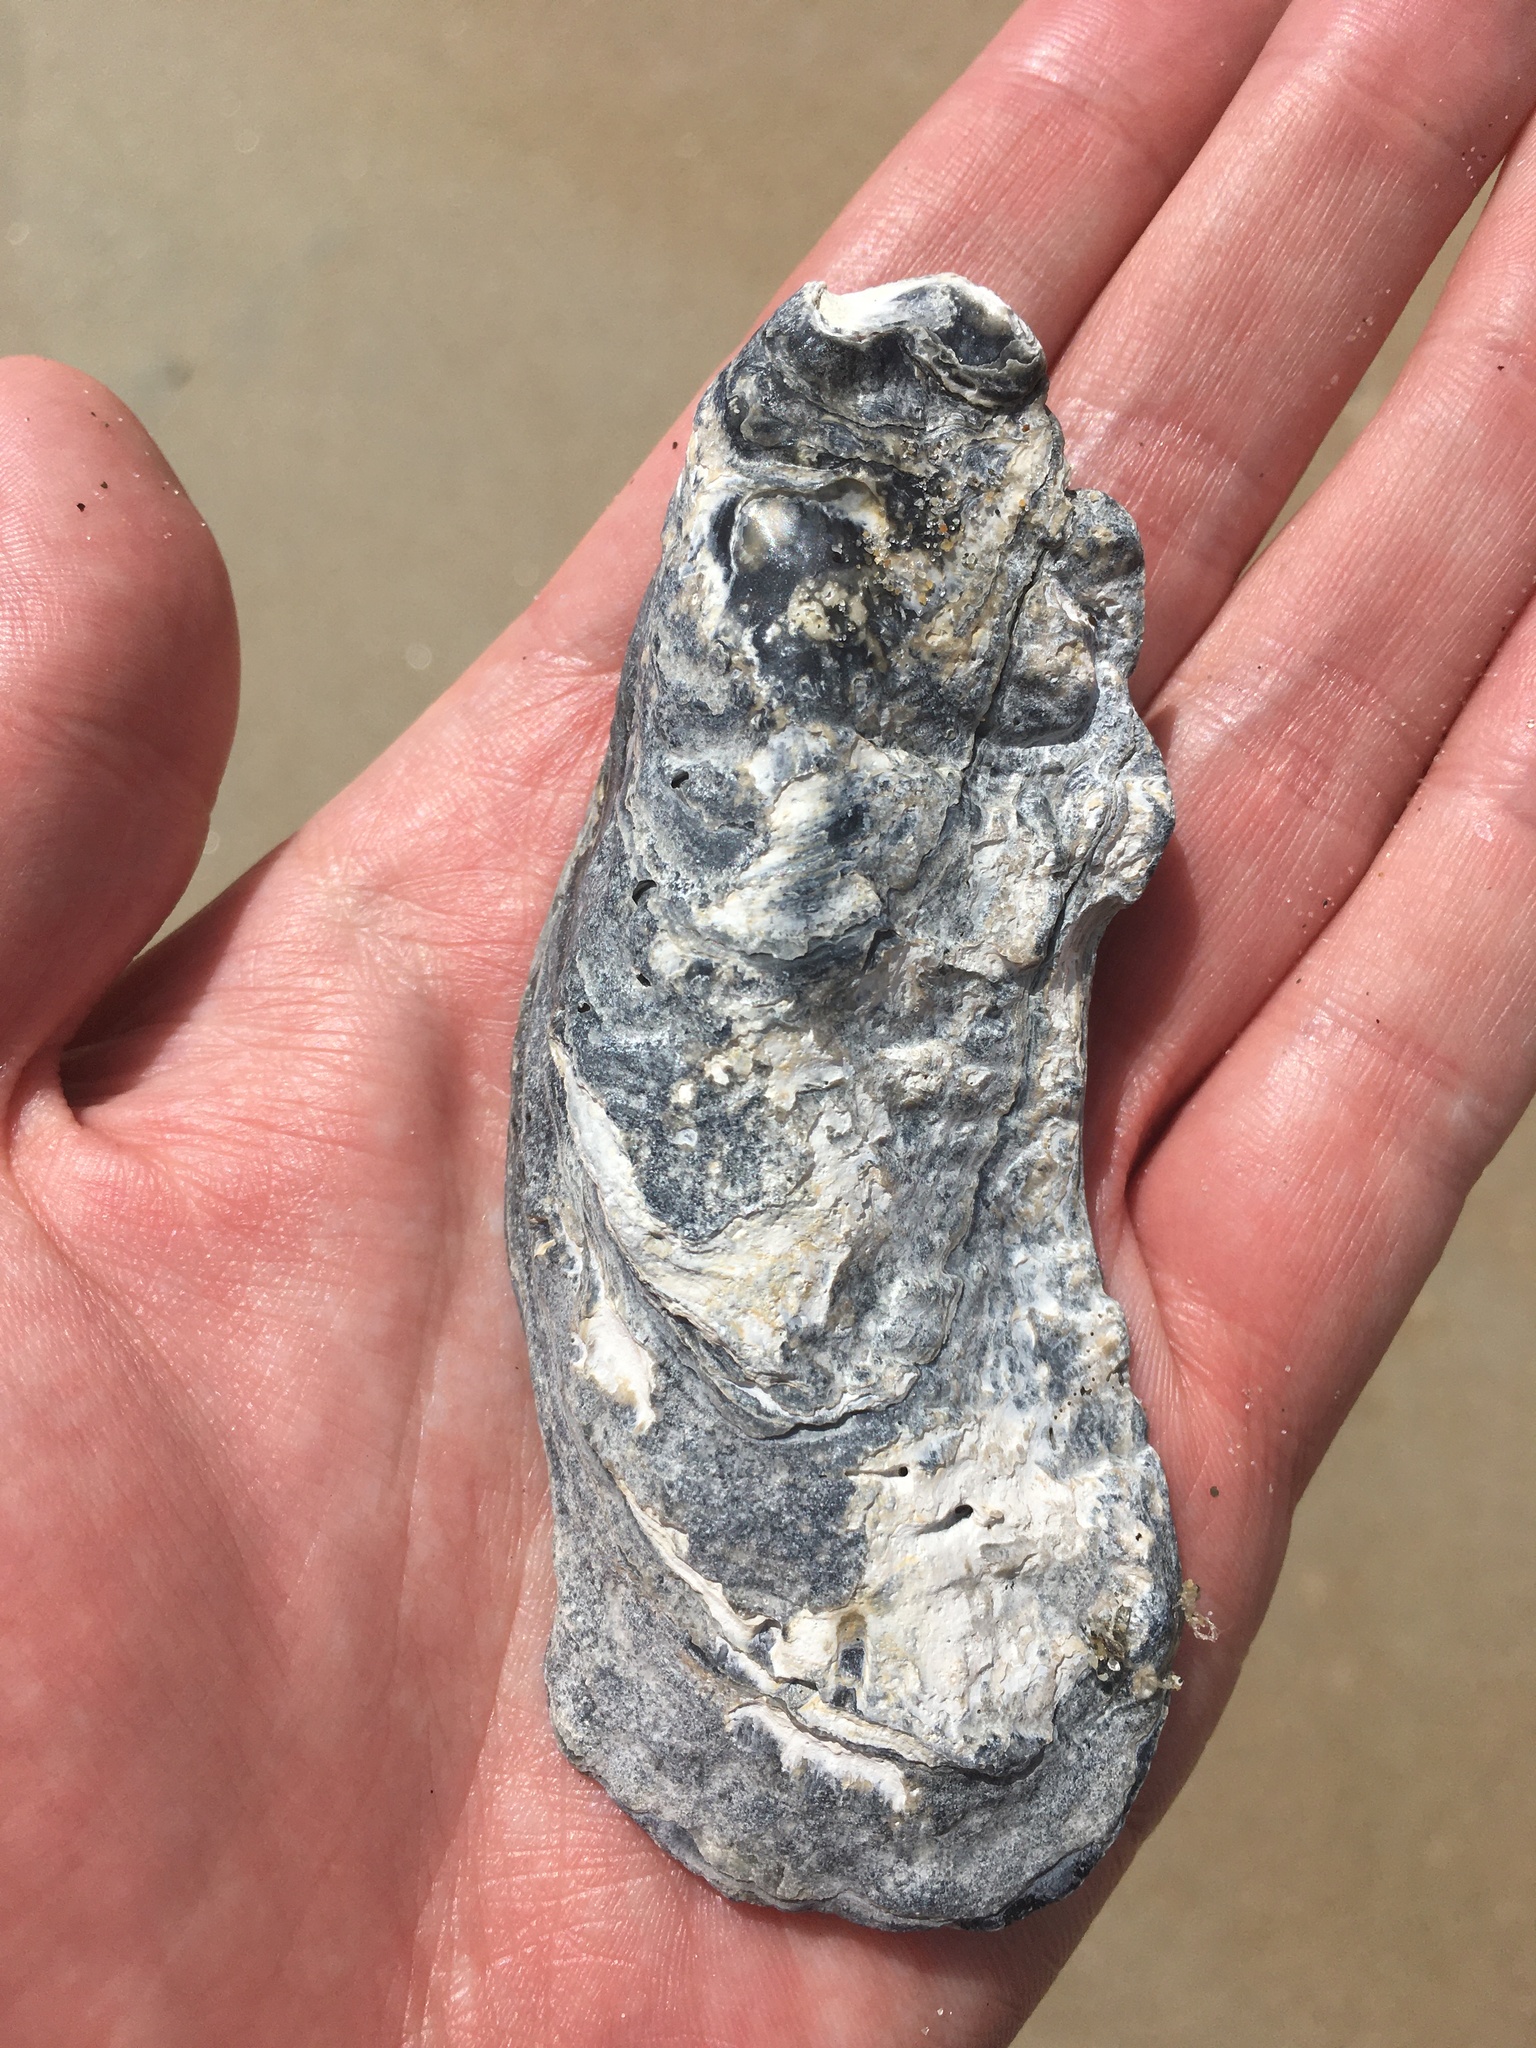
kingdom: Animalia
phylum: Mollusca
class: Bivalvia
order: Ostreida
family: Ostreidae
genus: Crassostrea
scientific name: Crassostrea virginica
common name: American oyster
